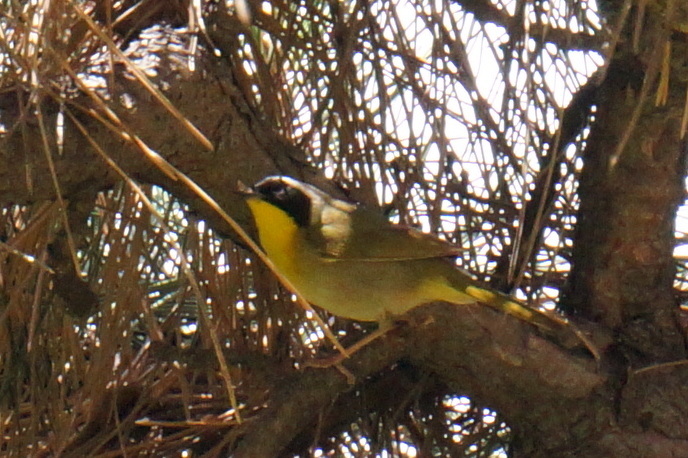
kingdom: Animalia
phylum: Chordata
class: Aves
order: Passeriformes
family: Parulidae
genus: Geothlypis
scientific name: Geothlypis trichas
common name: Common yellowthroat
